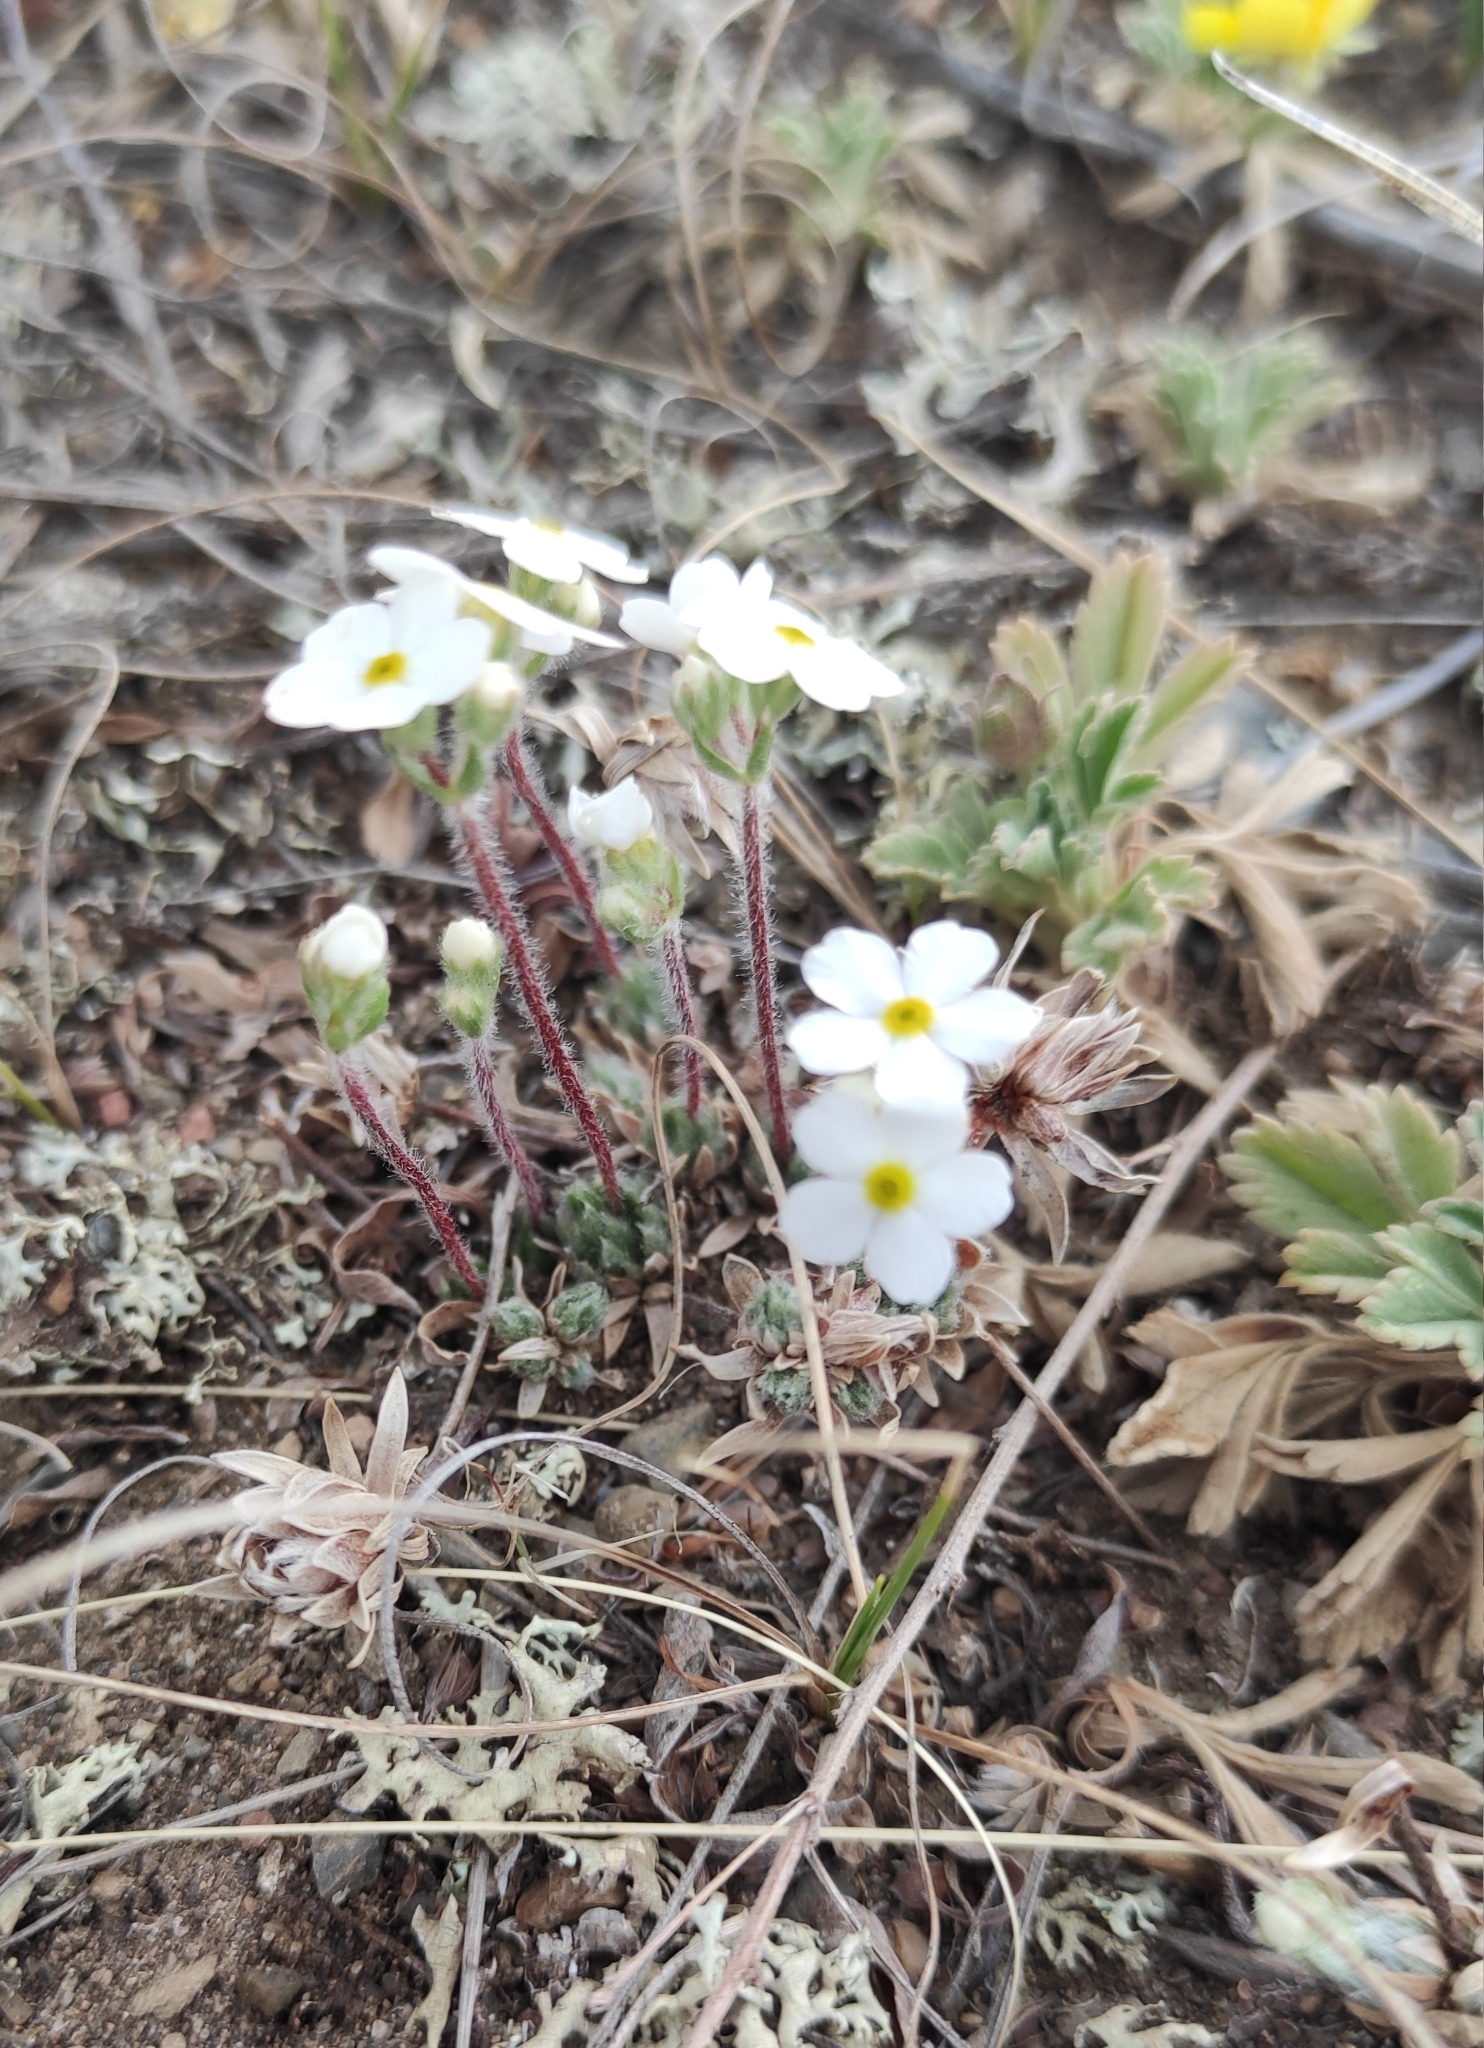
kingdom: Plantae
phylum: Tracheophyta
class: Magnoliopsida
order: Ericales
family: Primulaceae
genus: Androsace
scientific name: Androsace incana
